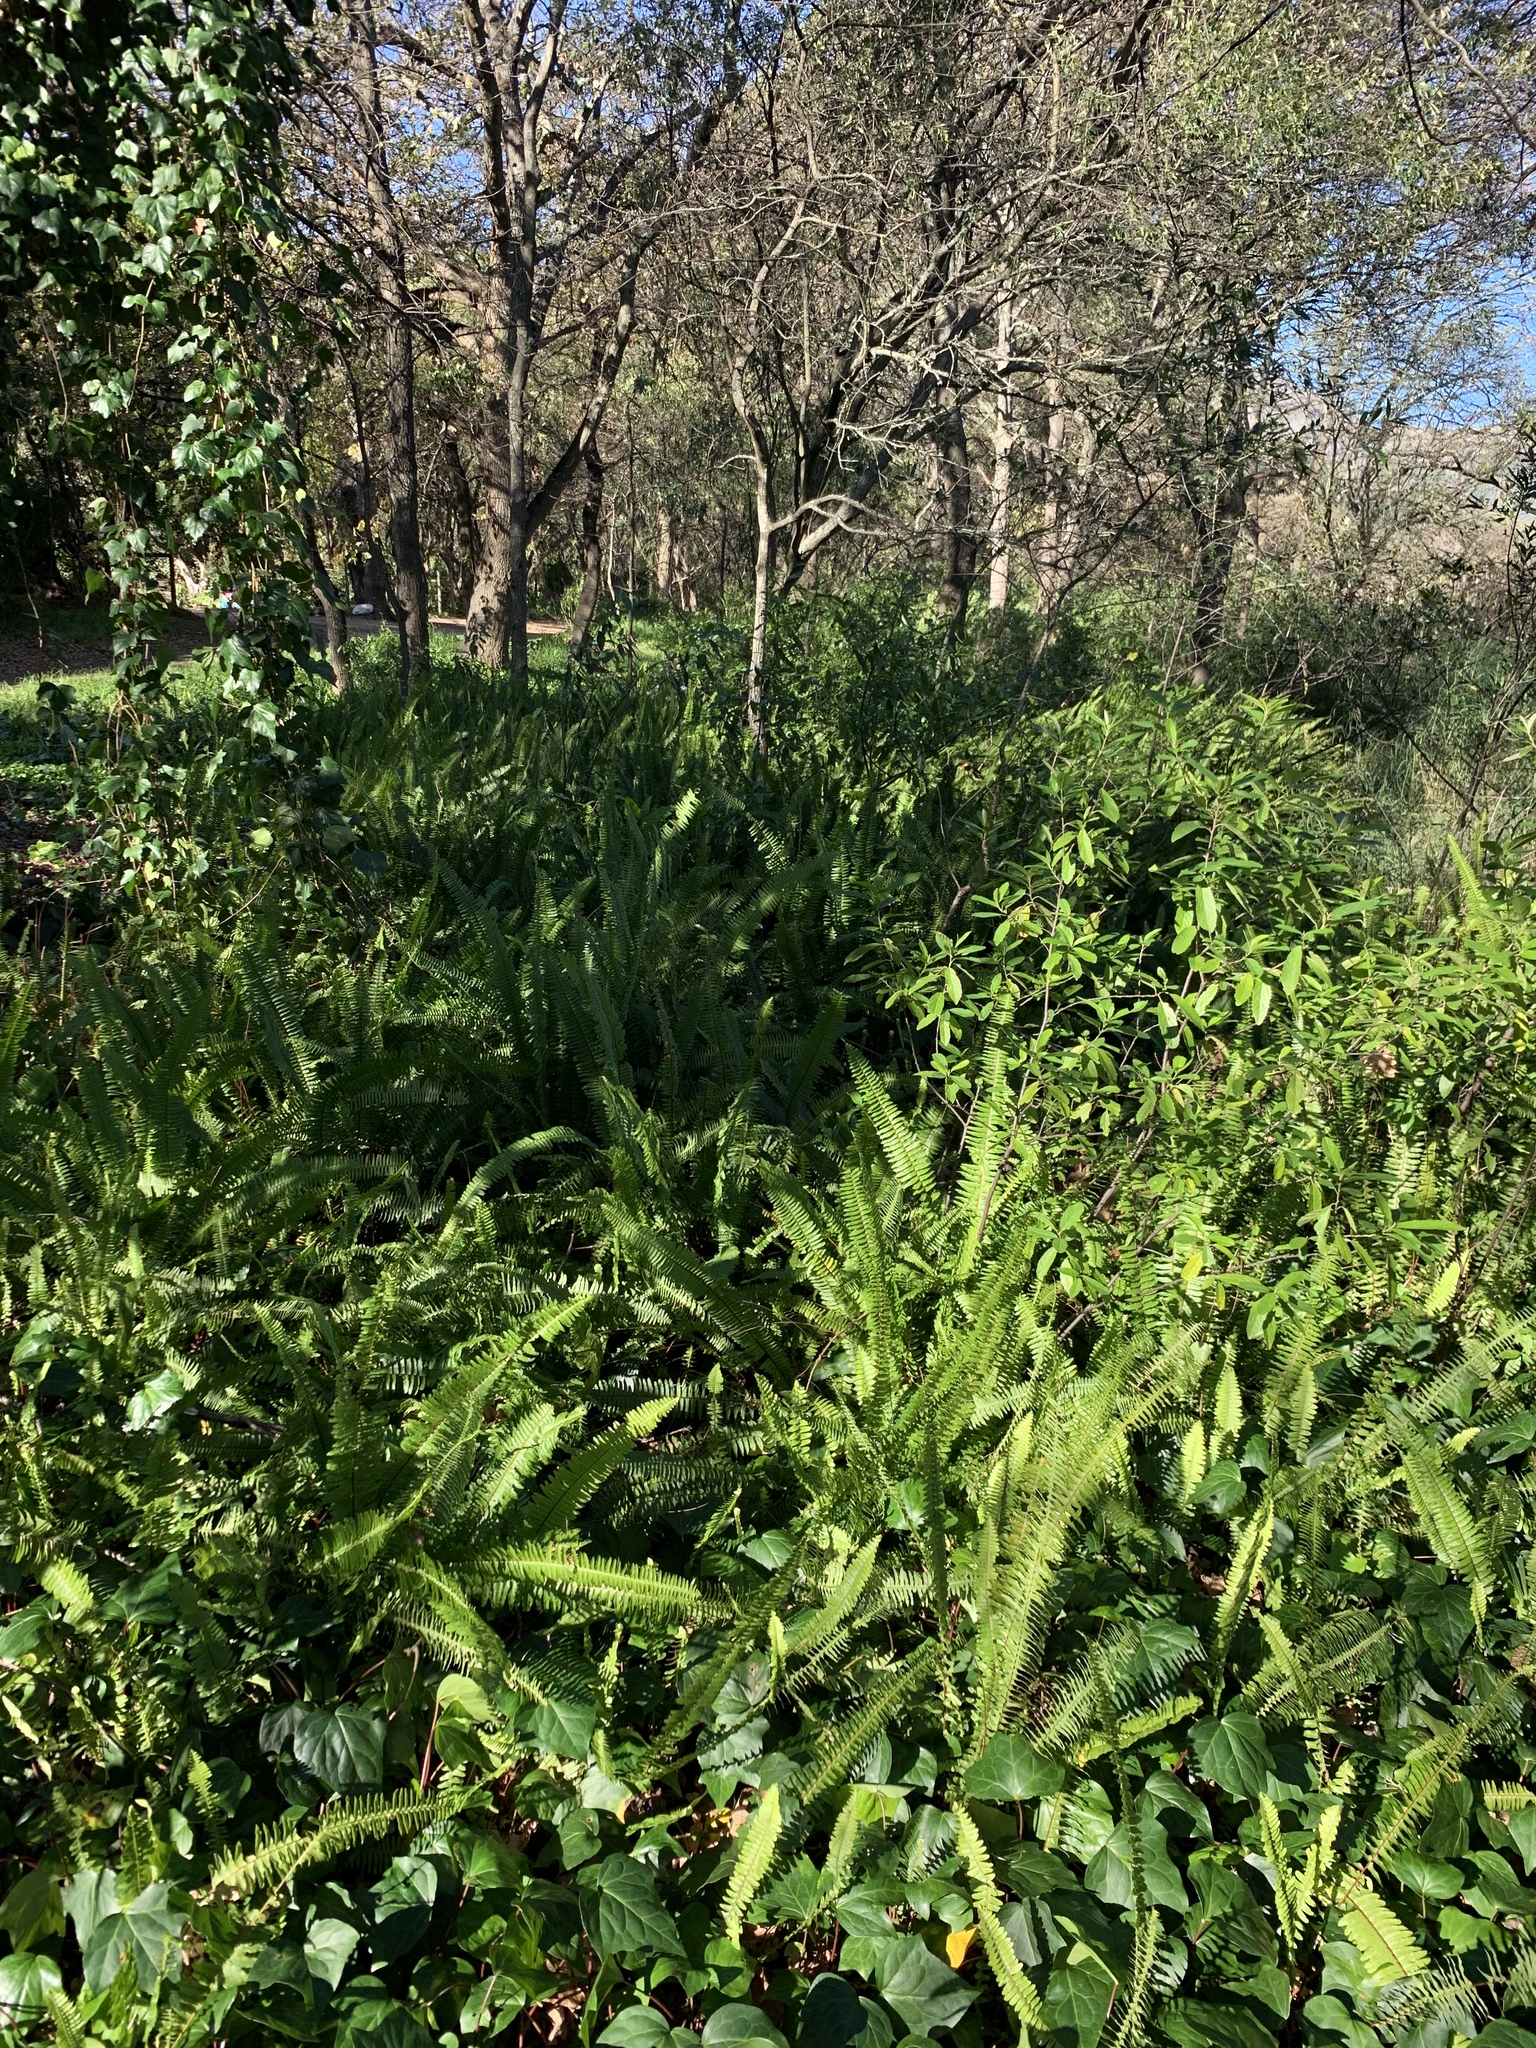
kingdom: Plantae
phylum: Tracheophyta
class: Polypodiopsida
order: Polypodiales
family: Nephrolepidaceae
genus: Nephrolepis
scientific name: Nephrolepis cordifolia
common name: Narrow swordfern
